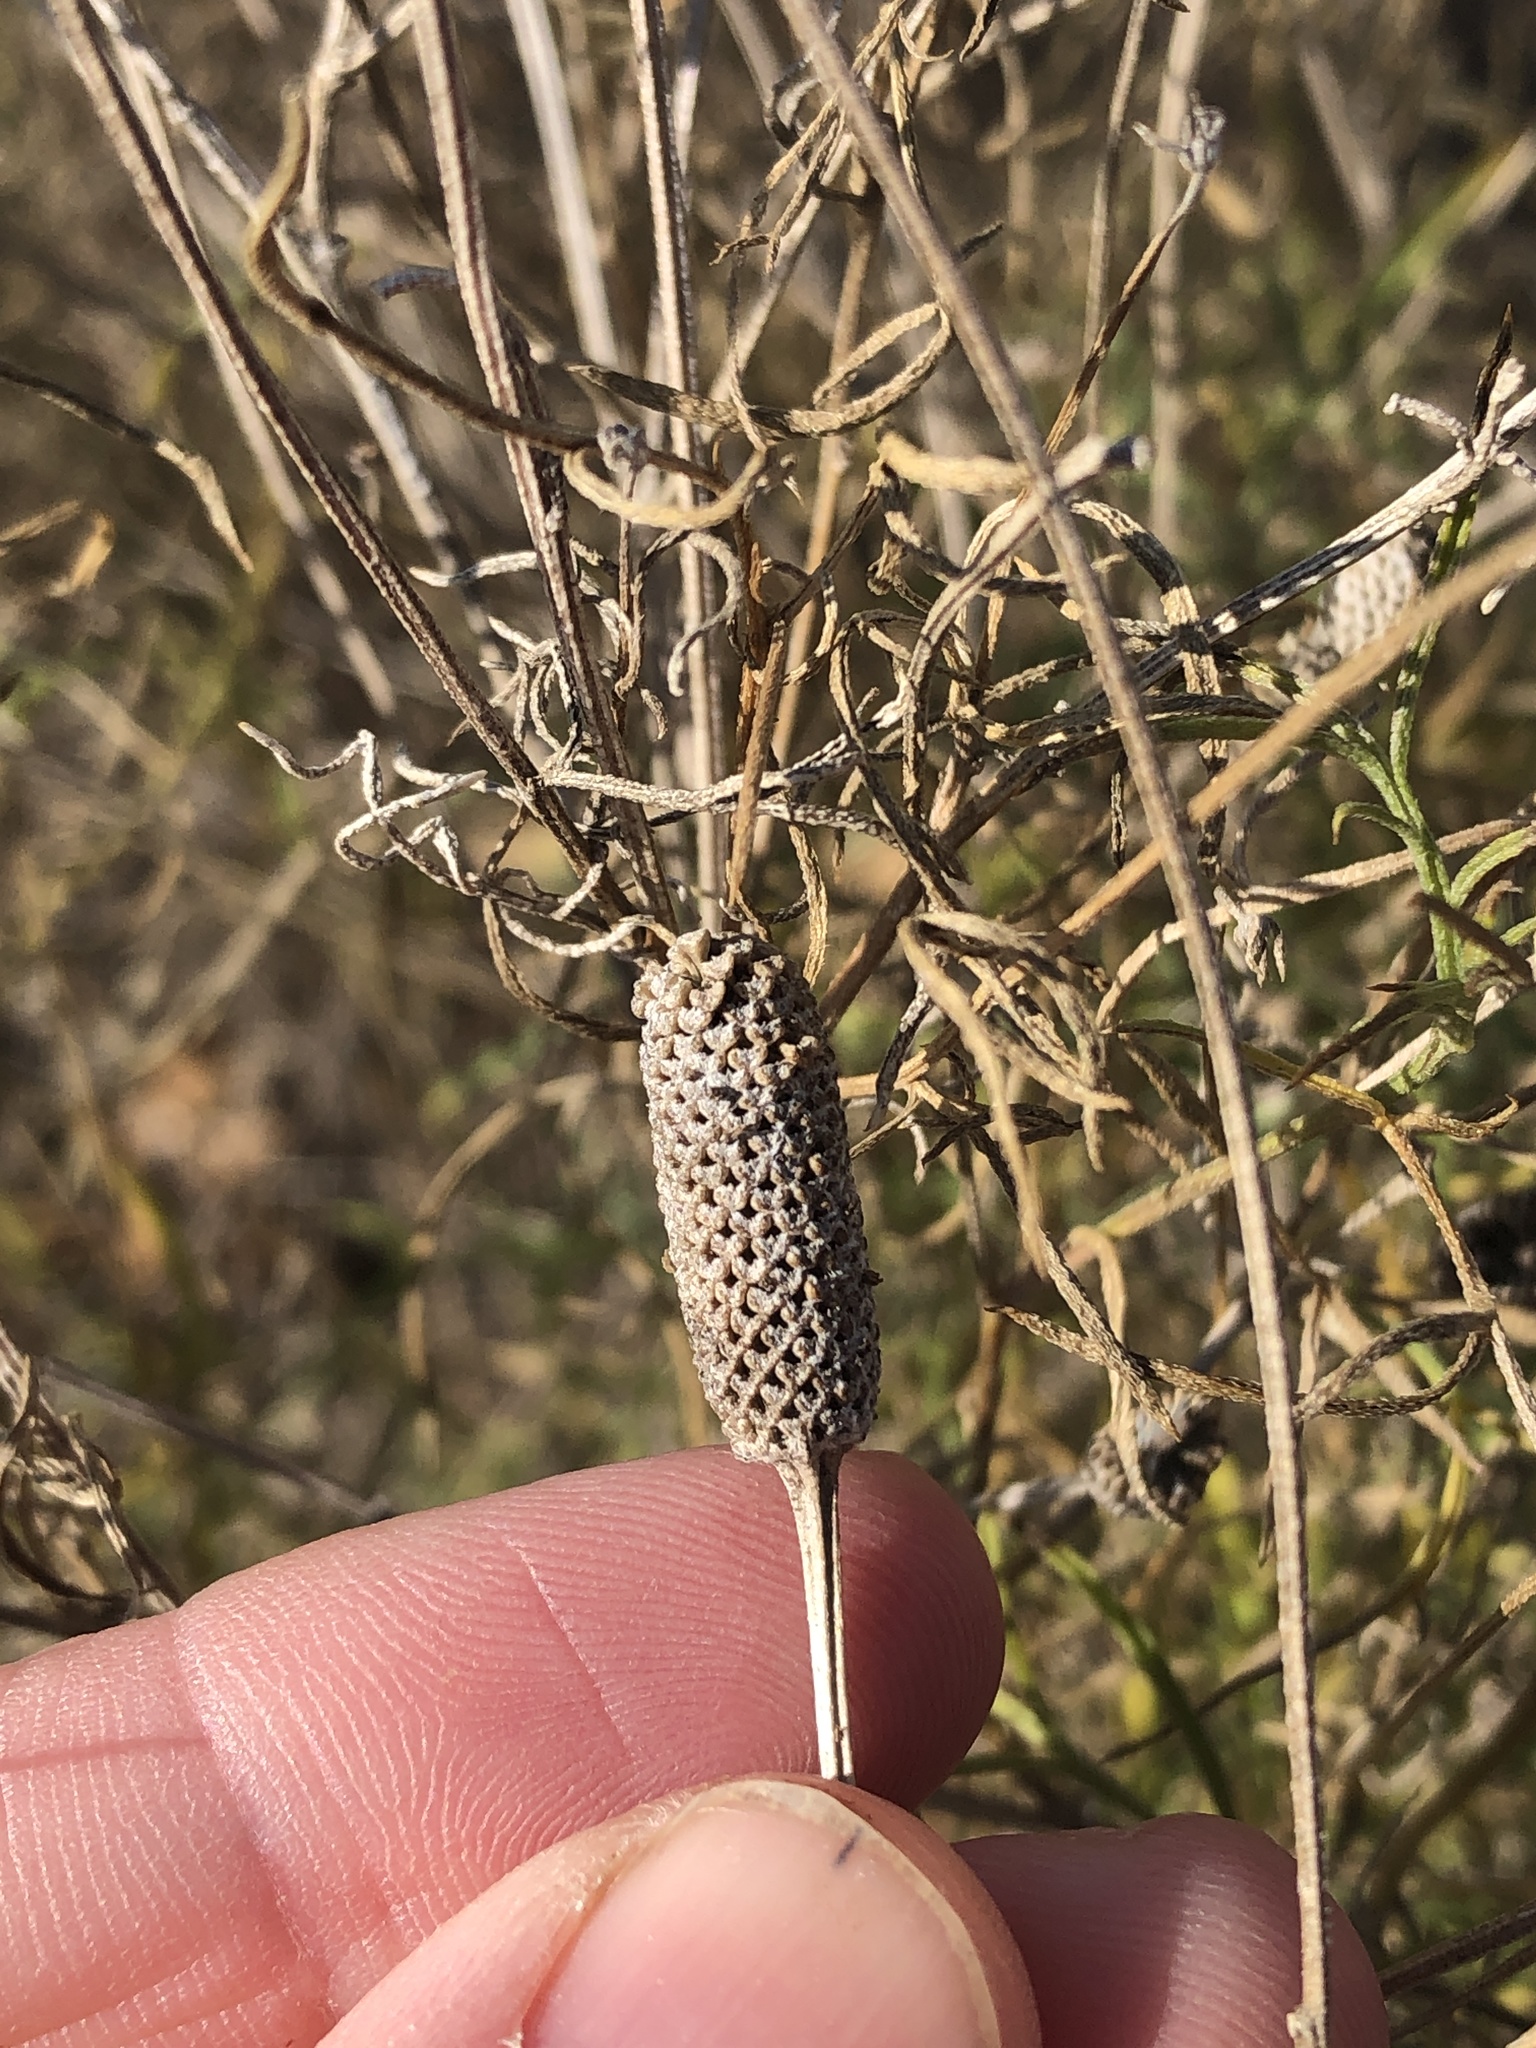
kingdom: Plantae
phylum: Tracheophyta
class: Magnoliopsida
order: Asterales
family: Asteraceae
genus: Ratibida
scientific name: Ratibida columnifera
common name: Prairie coneflower
